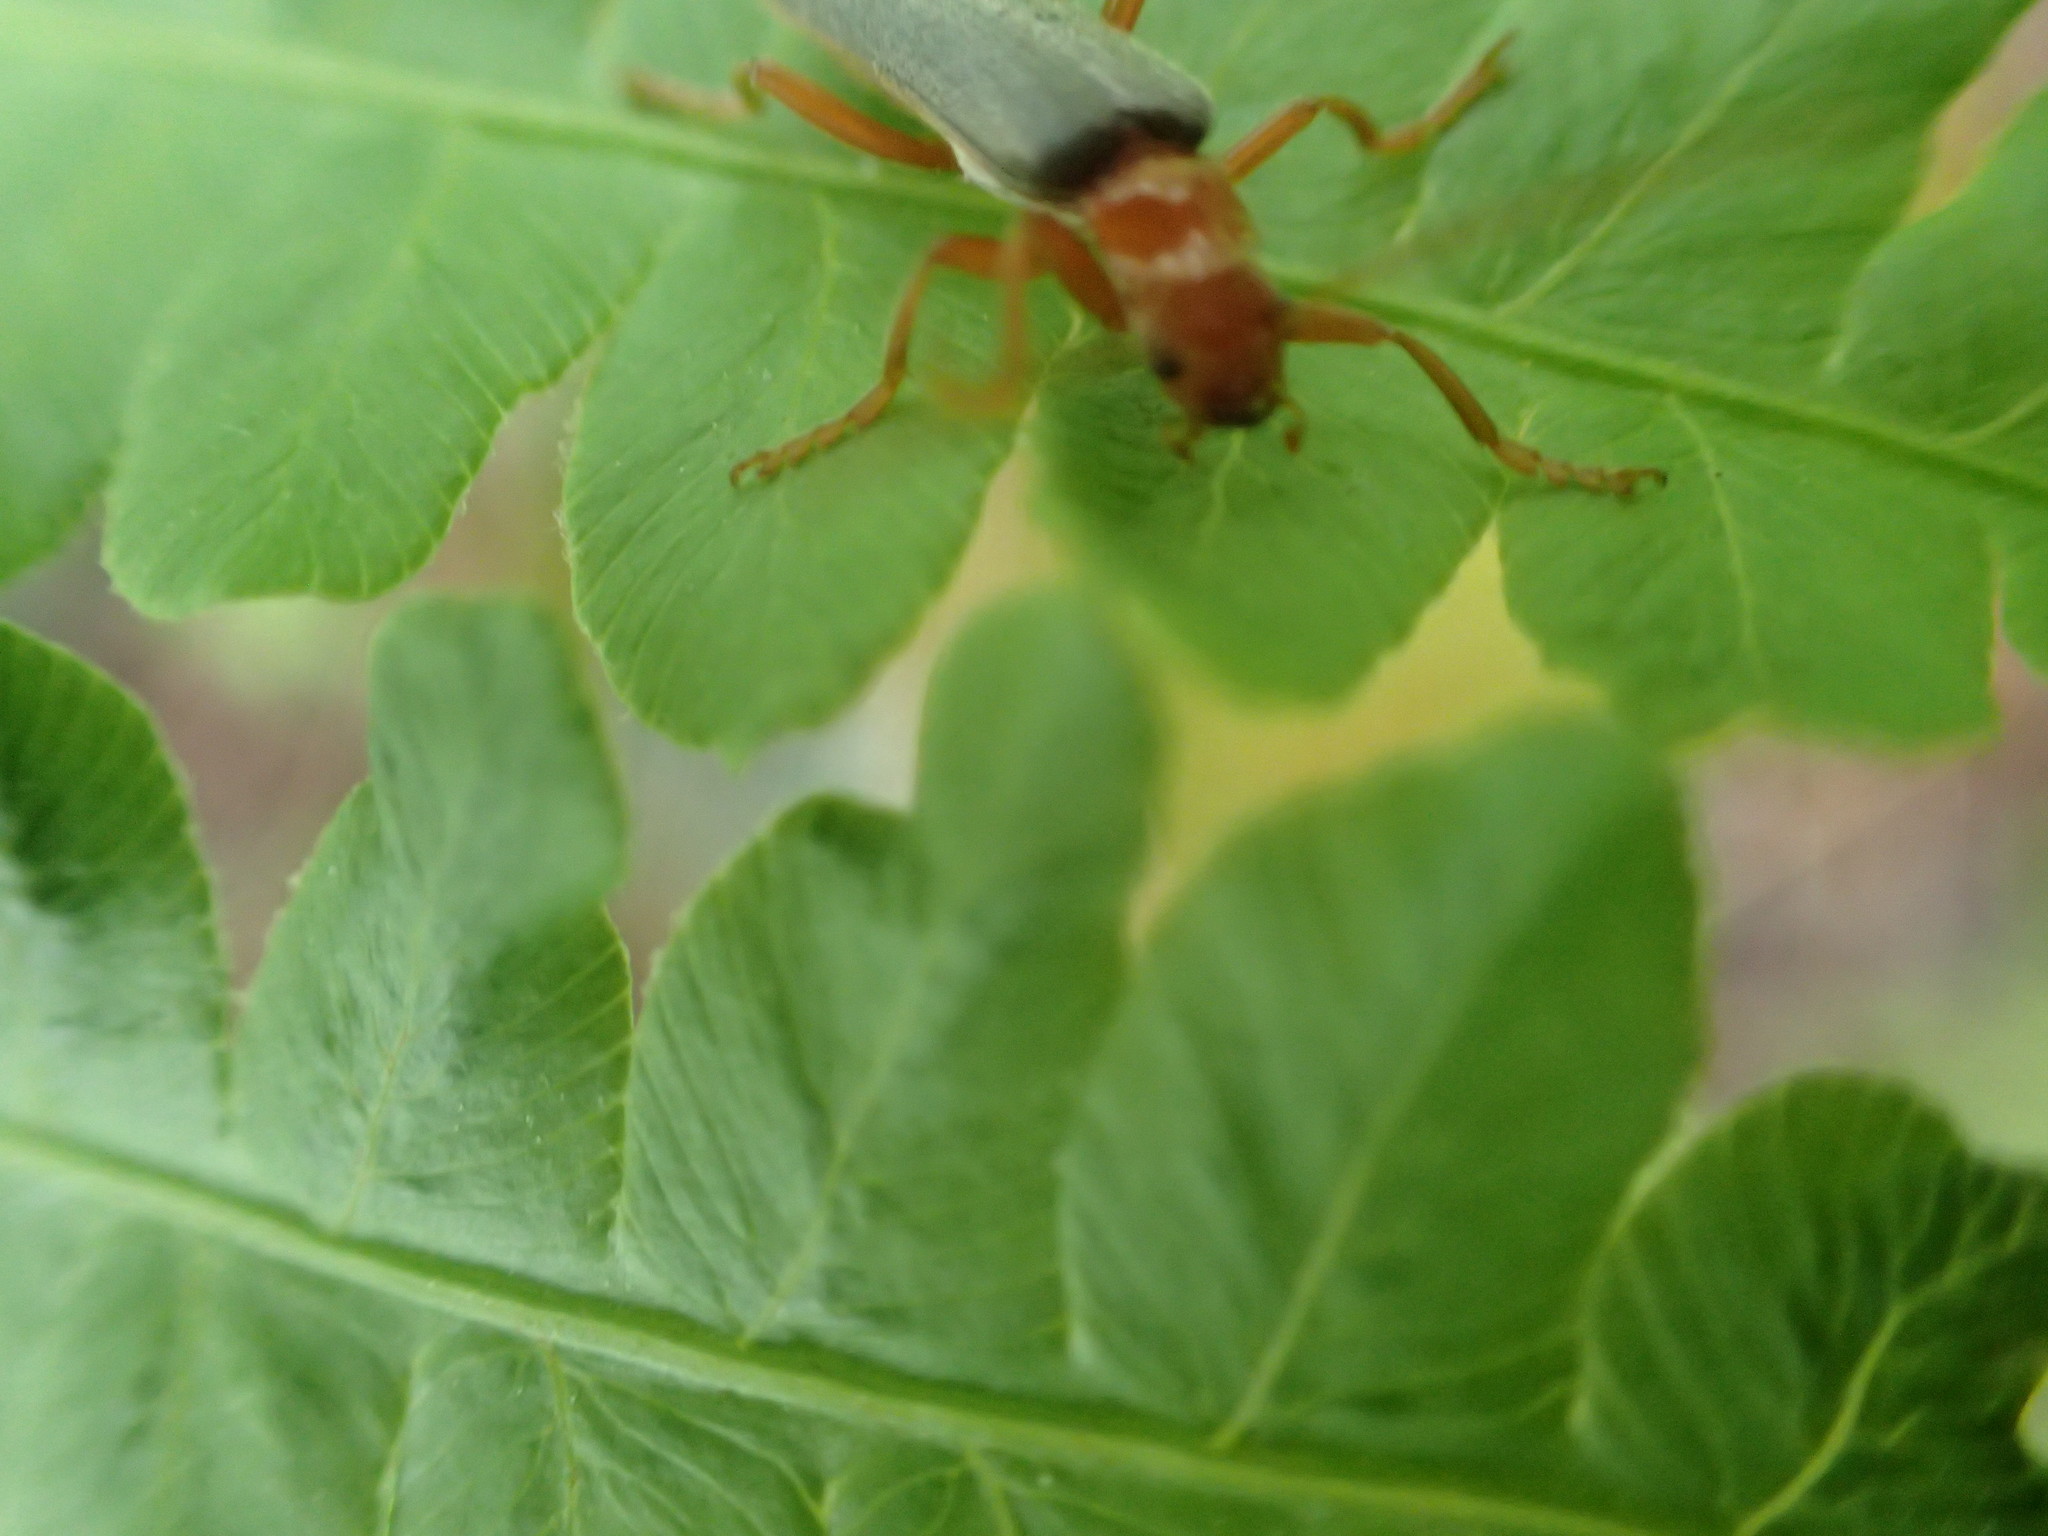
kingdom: Animalia
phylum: Arthropoda
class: Insecta
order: Coleoptera
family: Cantharidae
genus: Pacificanthia
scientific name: Pacificanthia rotundicollis
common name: Brown leatherwing beetle
